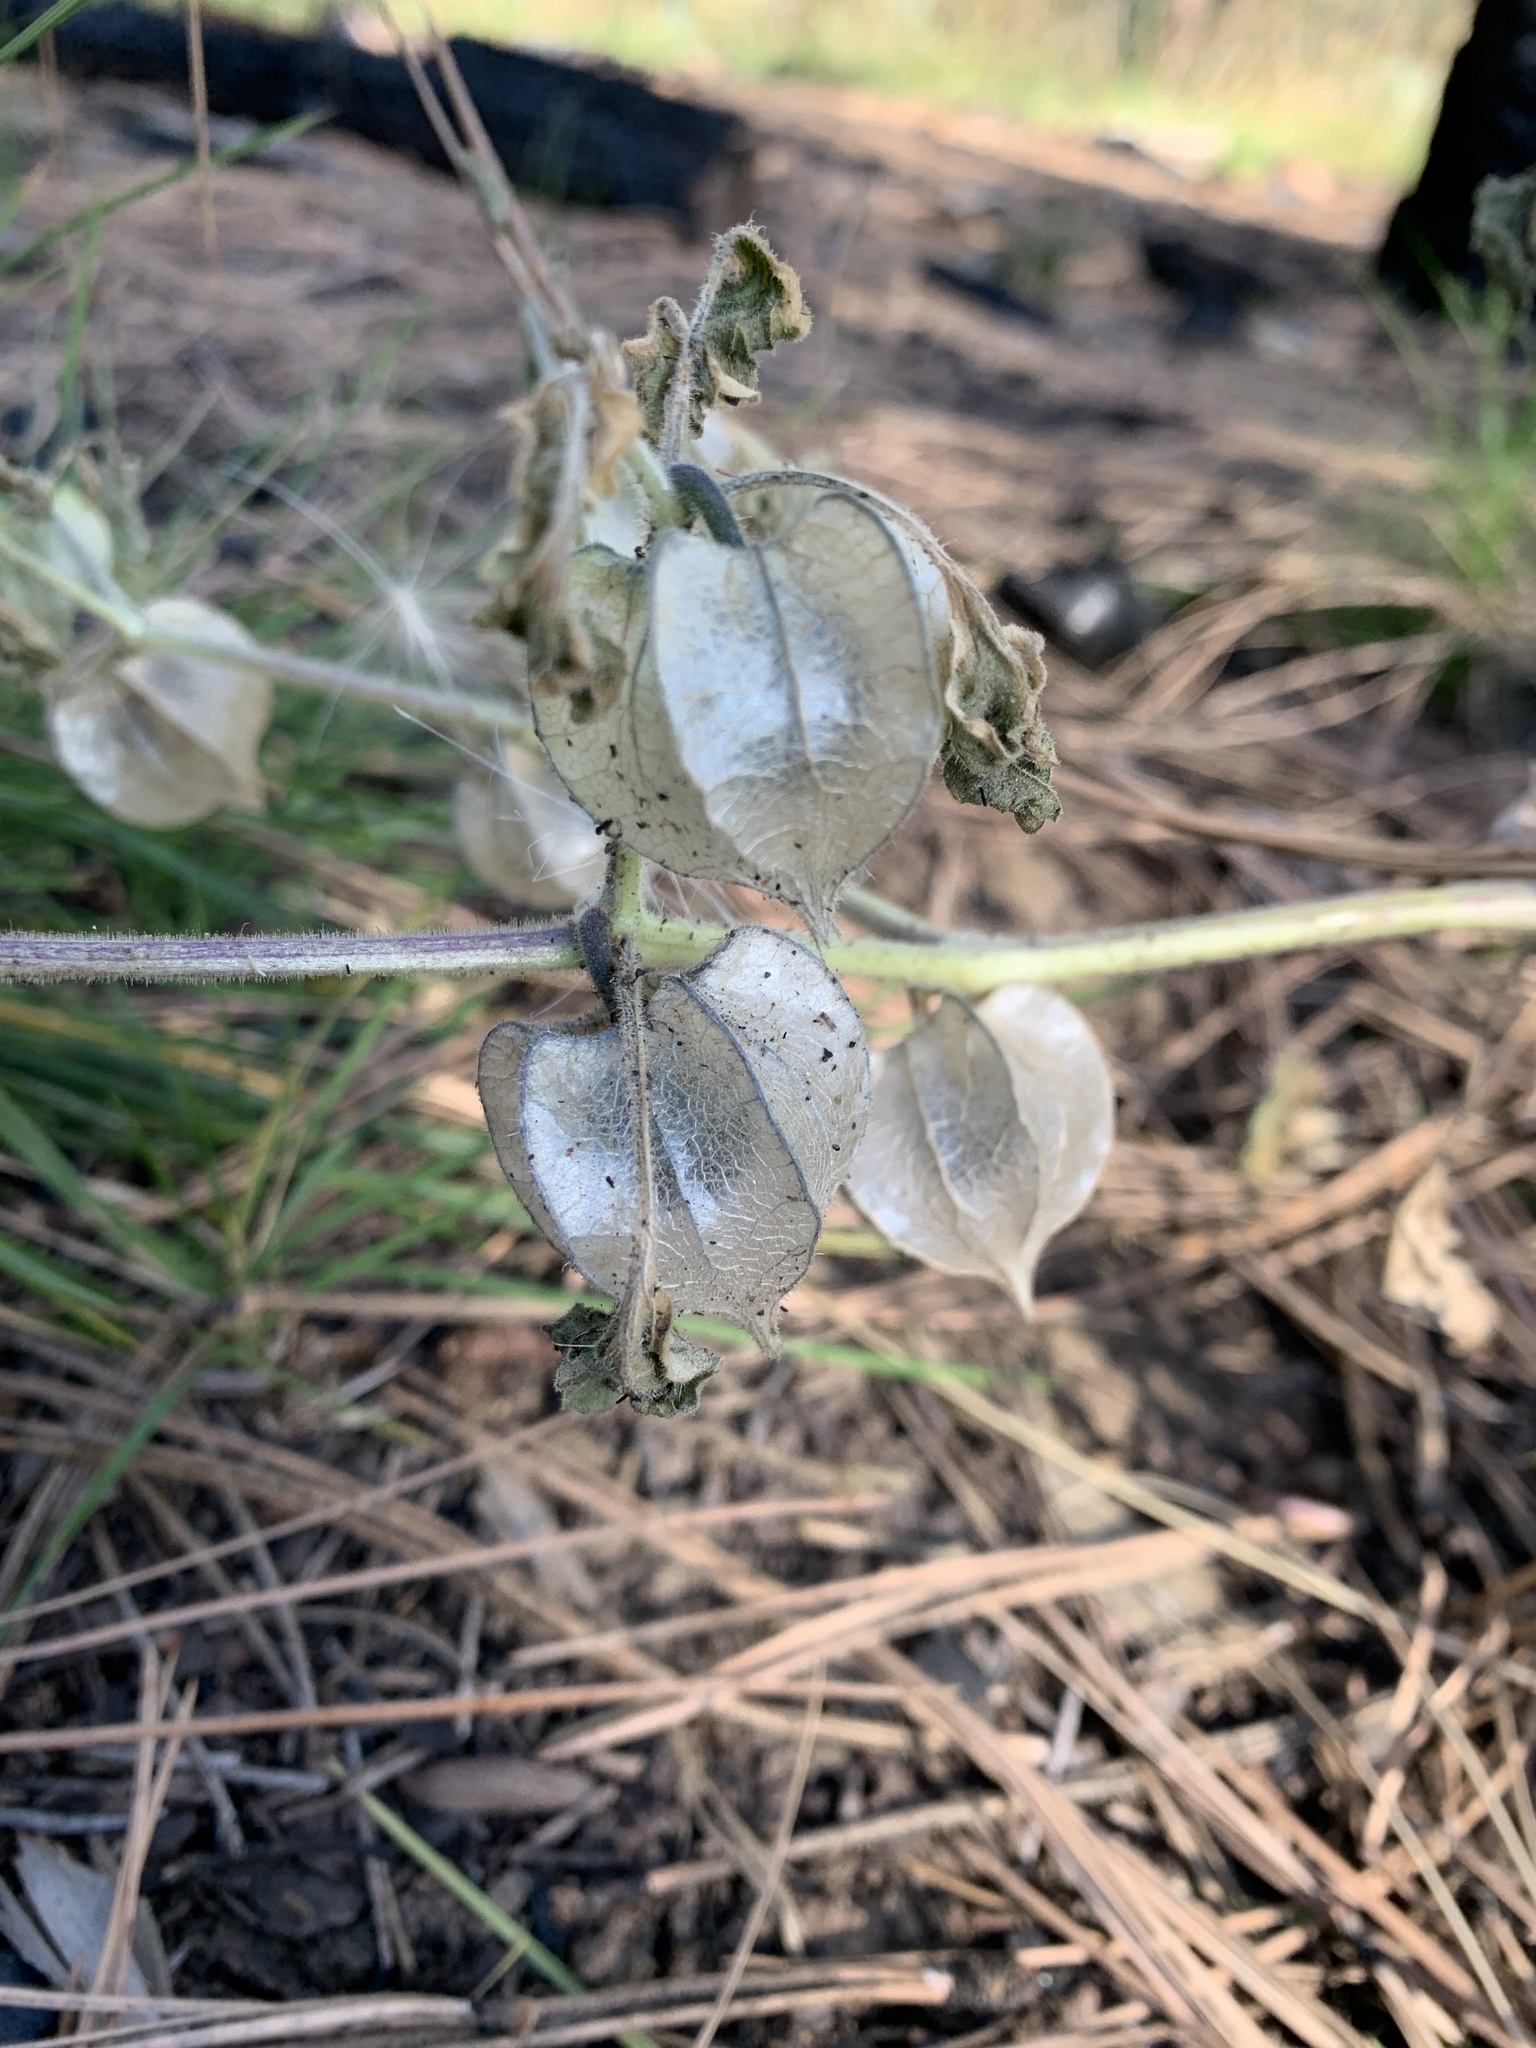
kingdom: Plantae
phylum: Tracheophyta
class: Magnoliopsida
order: Solanales
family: Solanaceae
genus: Physalis
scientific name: Physalis neomexicana
